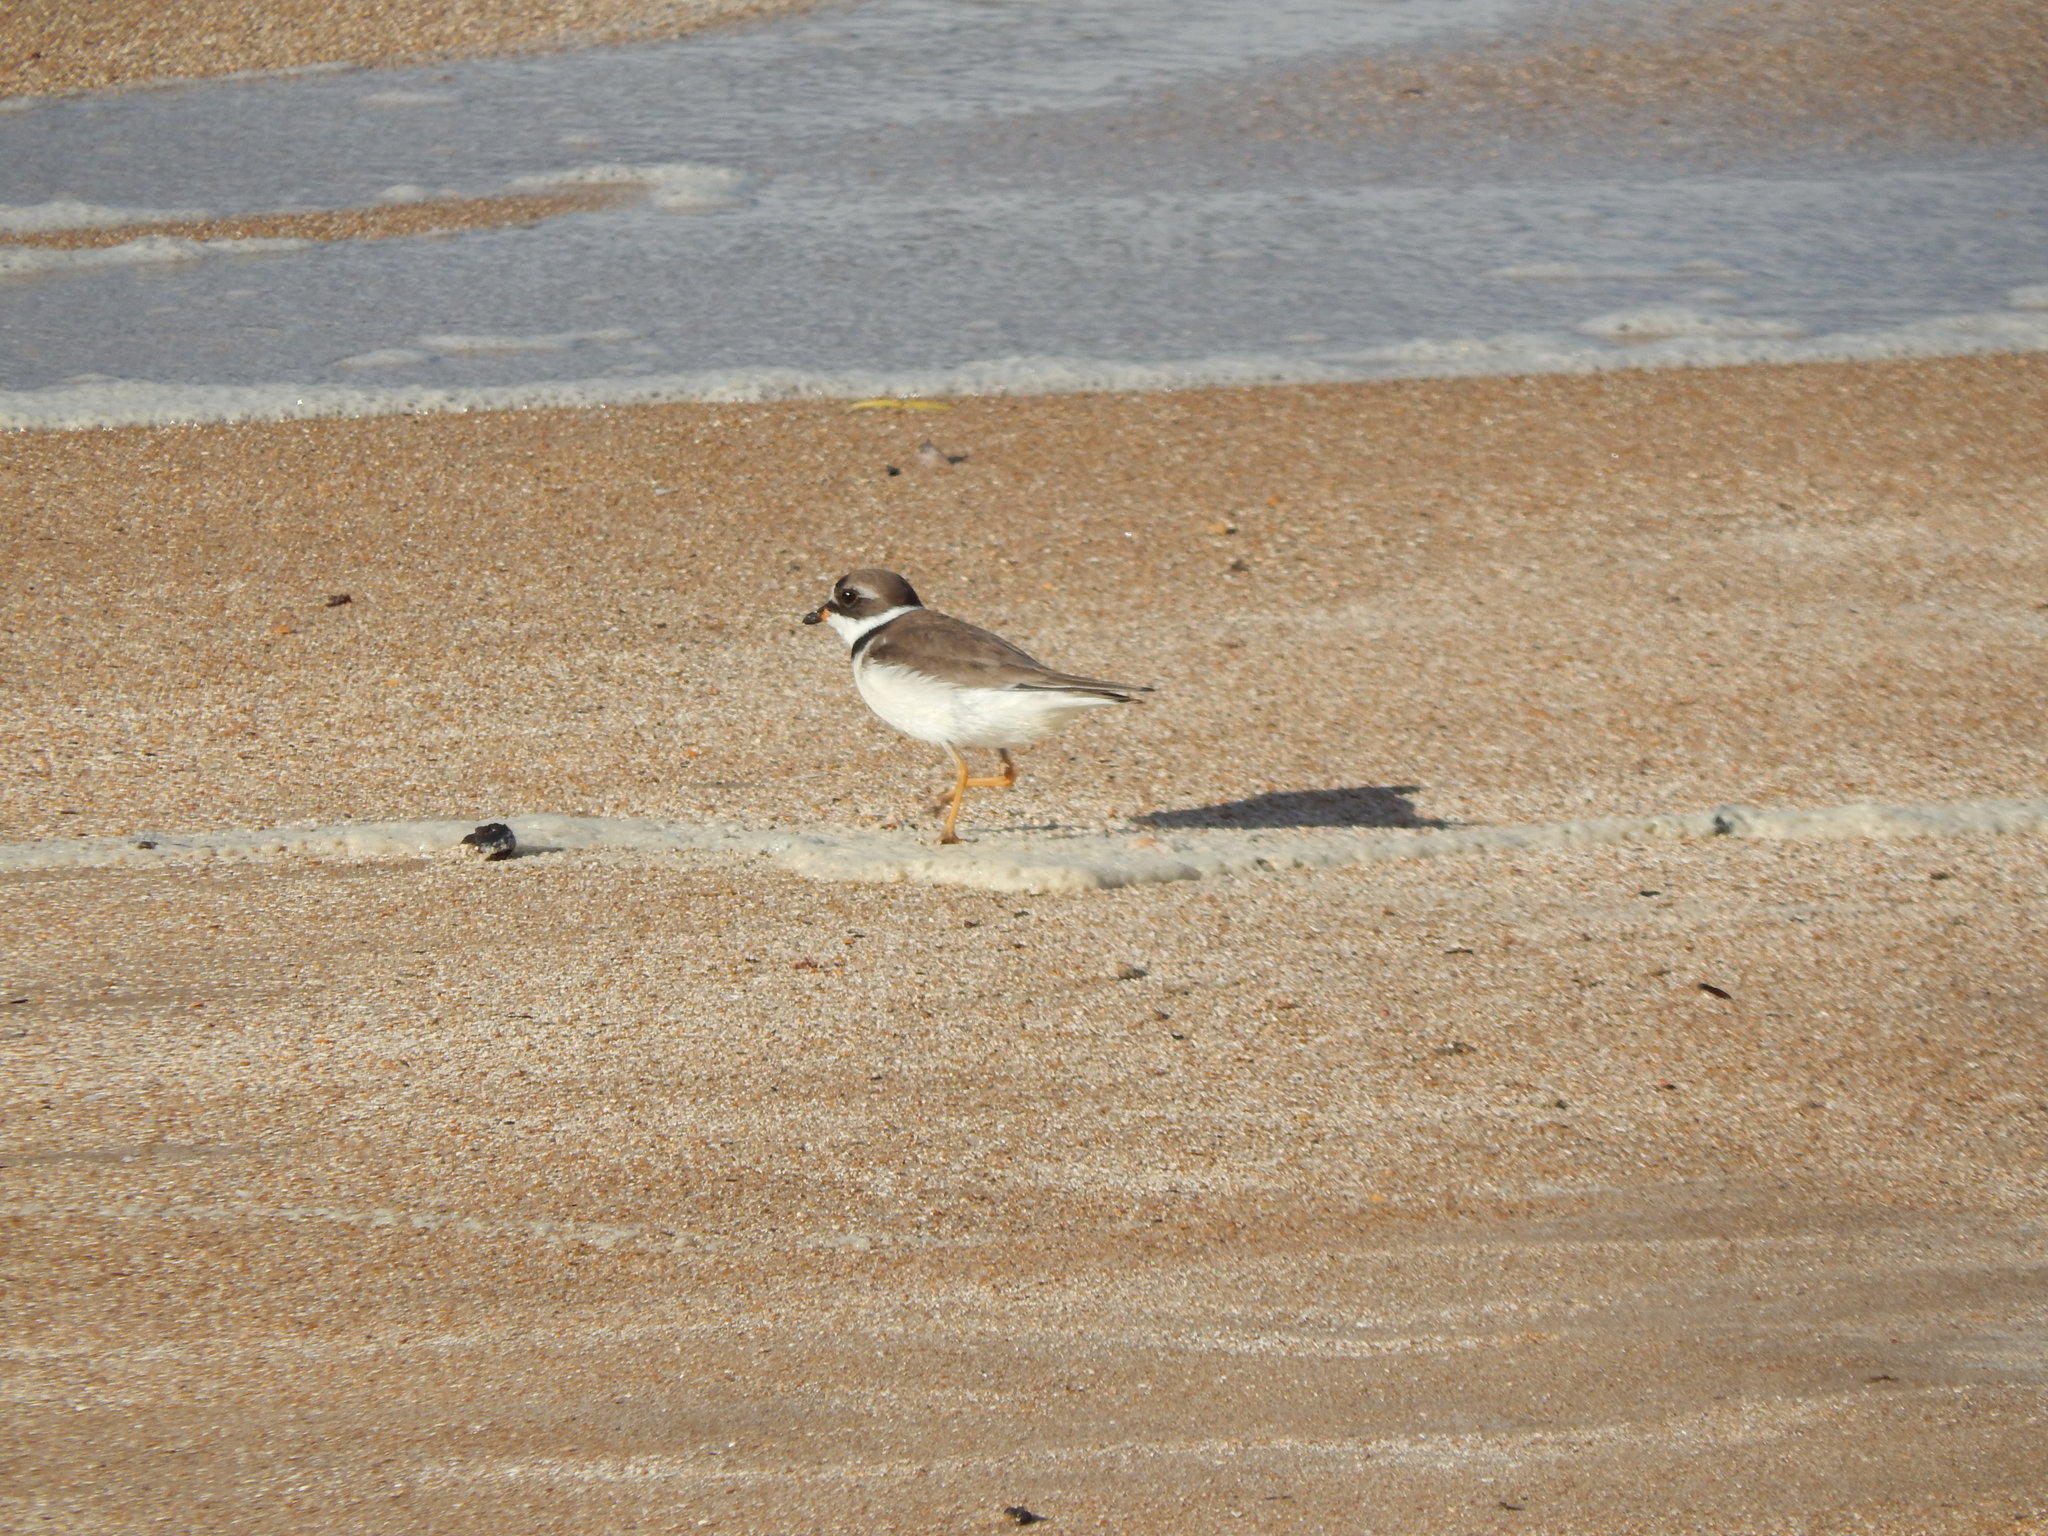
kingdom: Animalia
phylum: Chordata
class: Aves
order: Charadriiformes
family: Charadriidae
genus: Charadrius
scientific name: Charadrius semipalmatus
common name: Semipalmated plover
